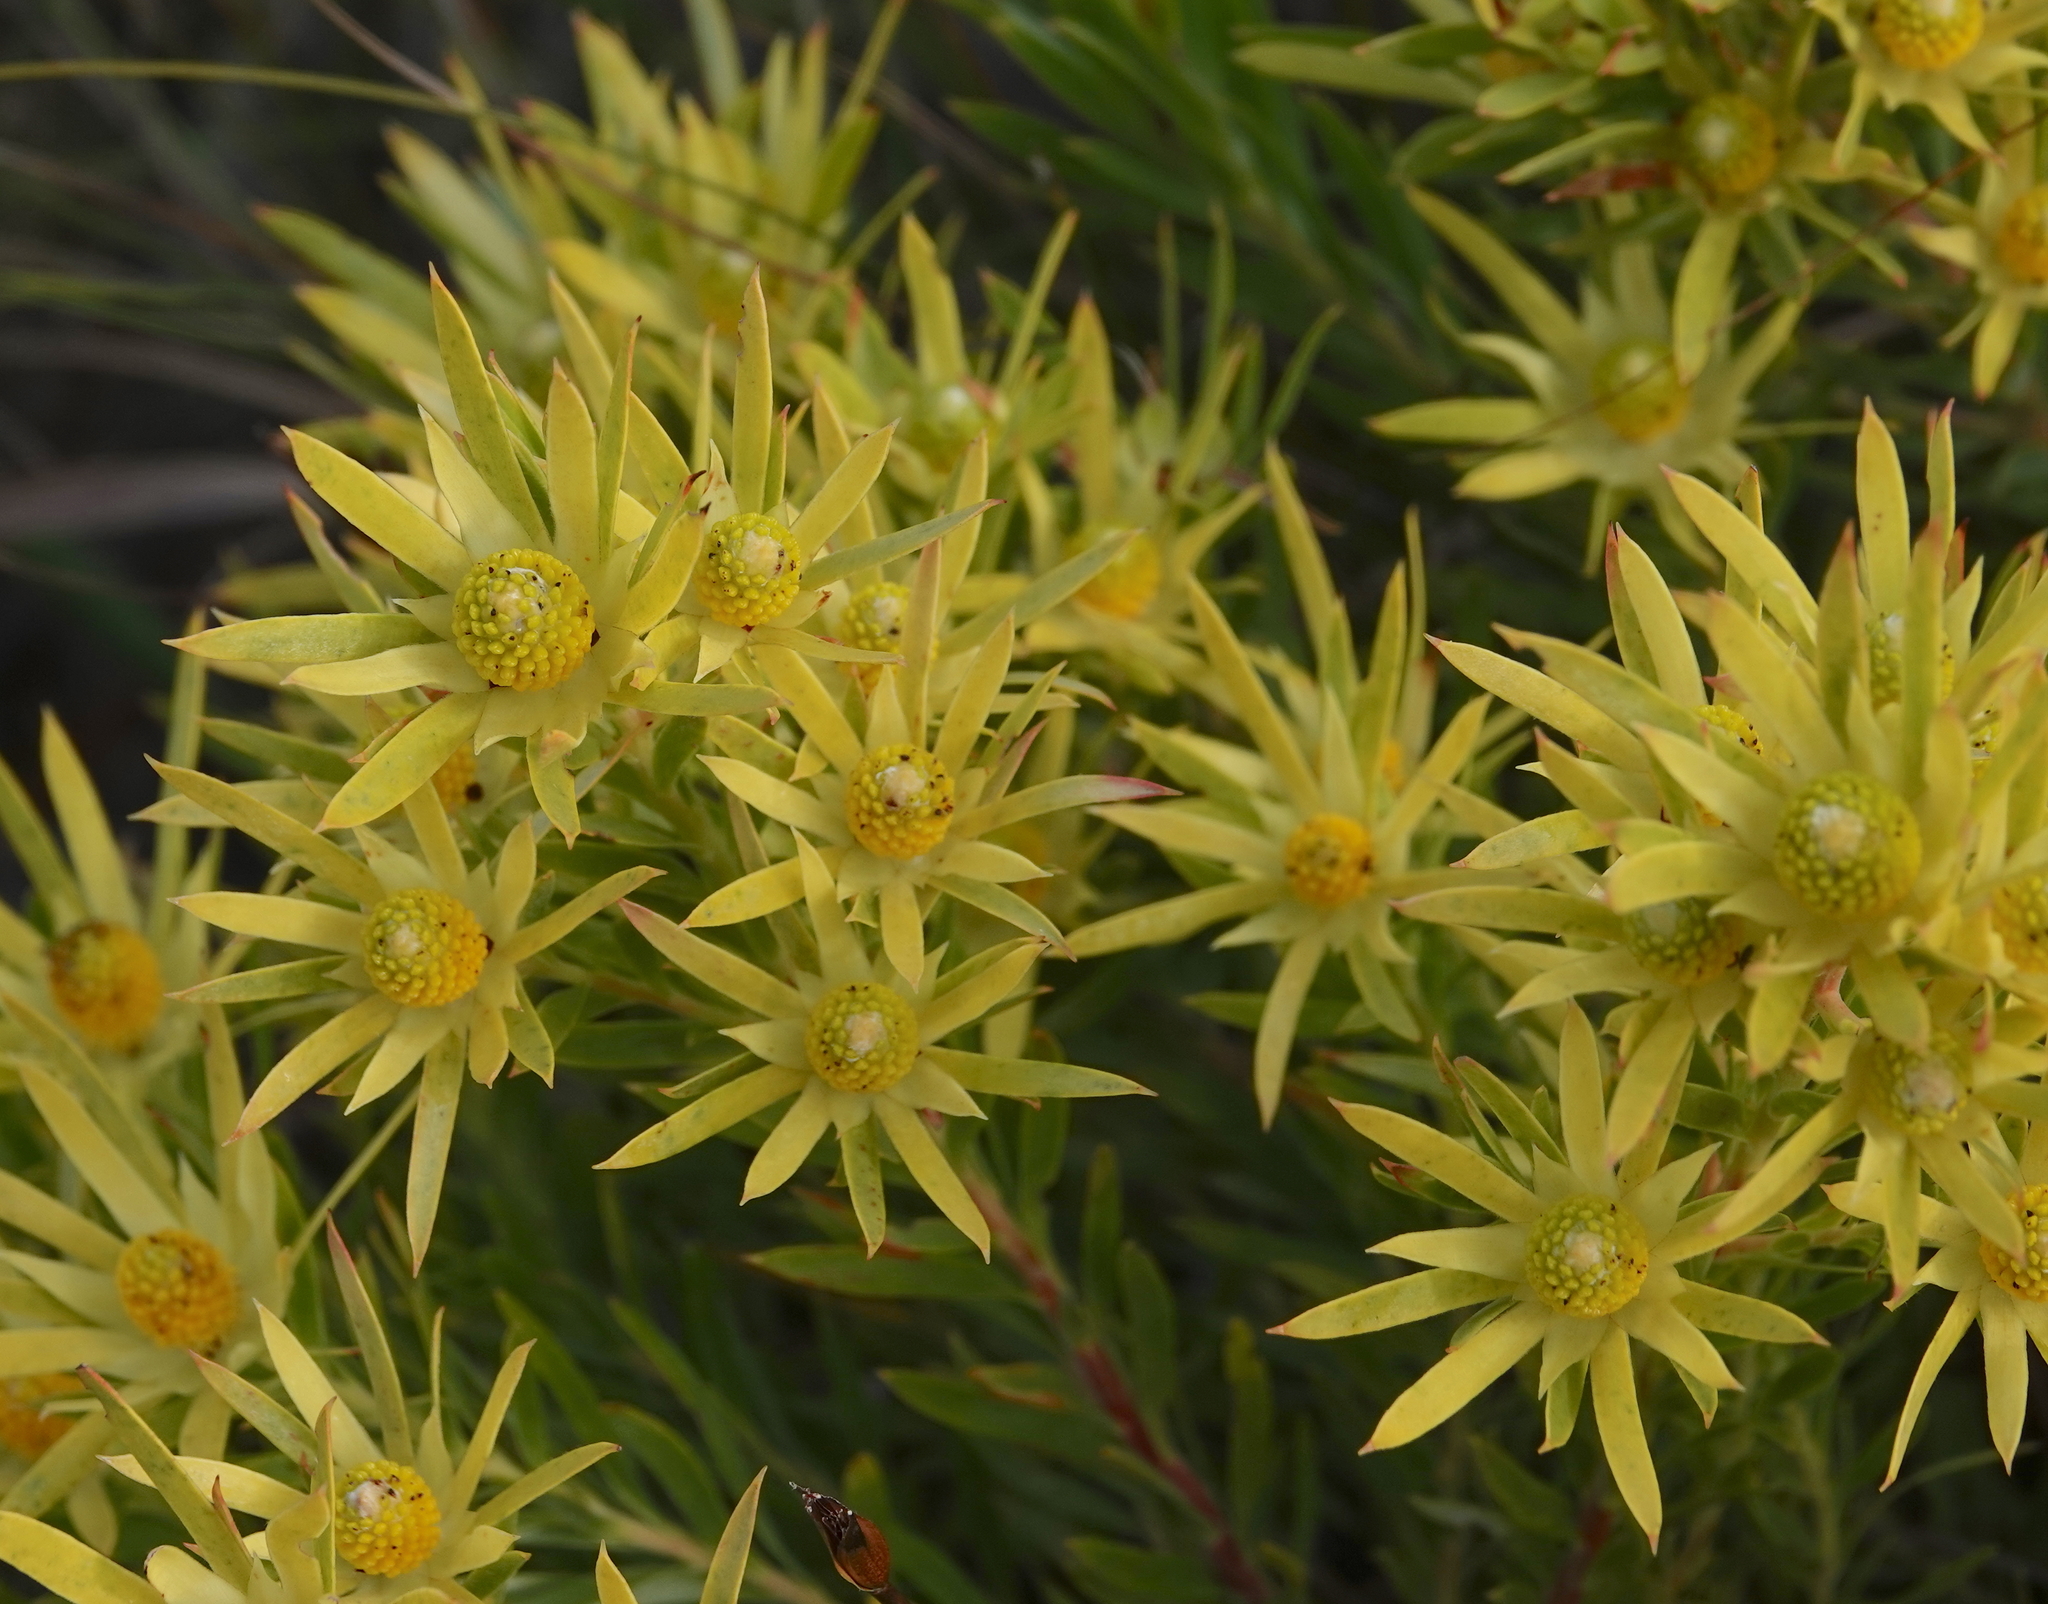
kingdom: Plantae
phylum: Tracheophyta
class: Magnoliopsida
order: Proteales
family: Proteaceae
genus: Leucadendron
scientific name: Leucadendron salignum
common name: Common sunshine conebush
